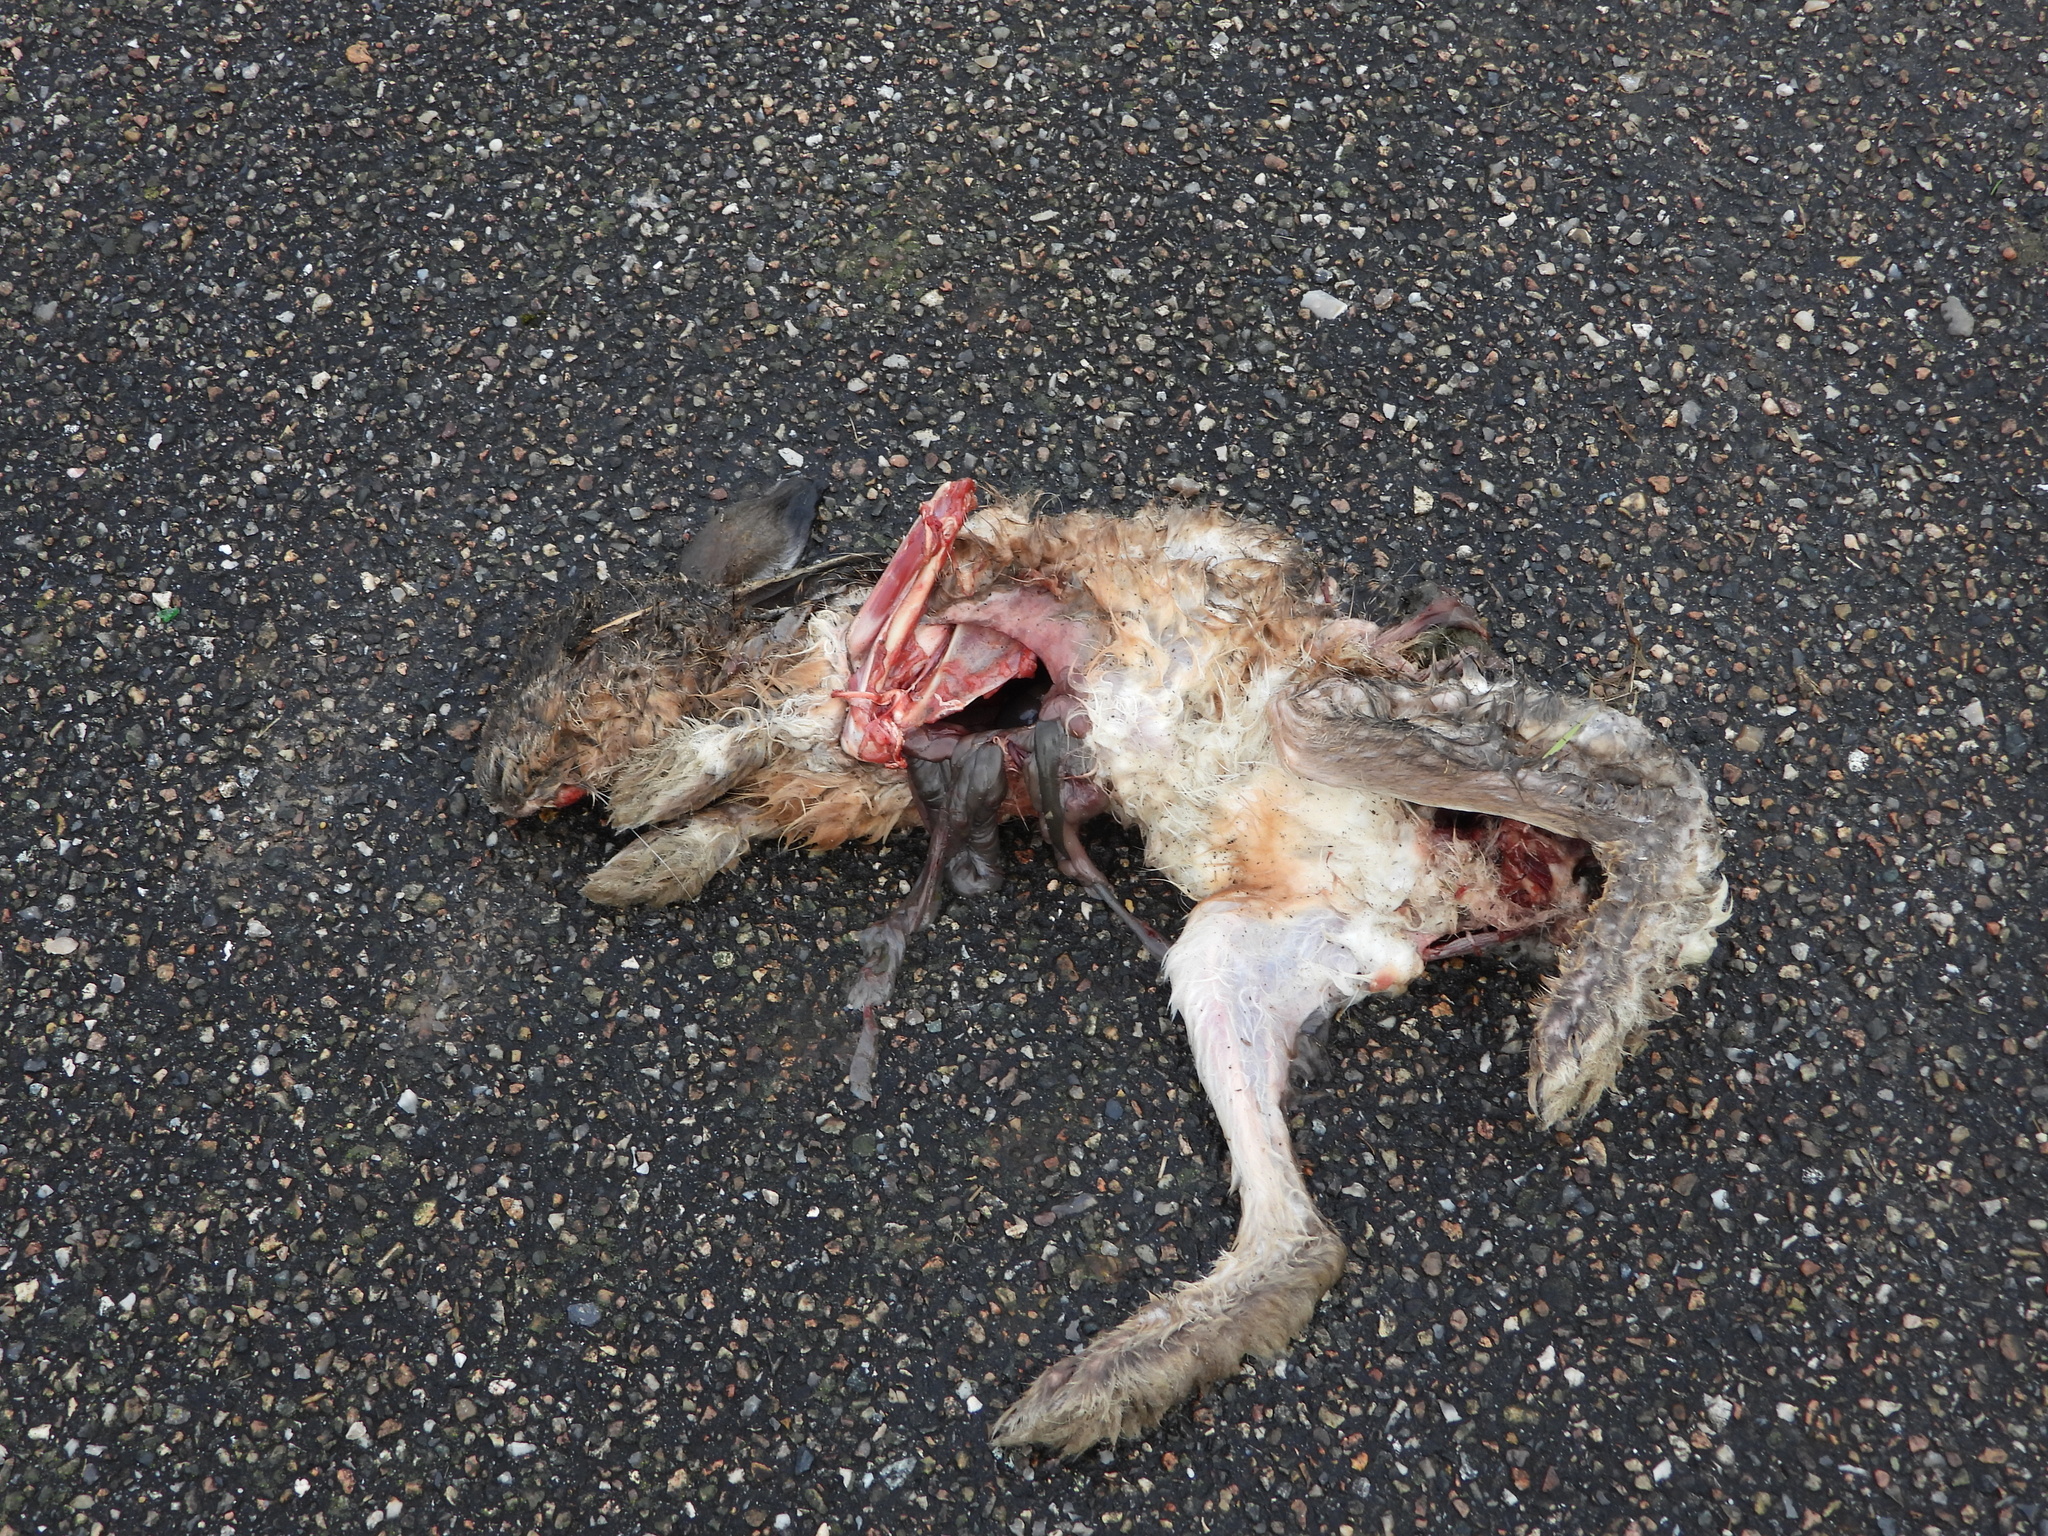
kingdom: Animalia
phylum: Chordata
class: Mammalia
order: Lagomorpha
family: Leporidae
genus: Lepus
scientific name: Lepus europaeus
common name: European hare
